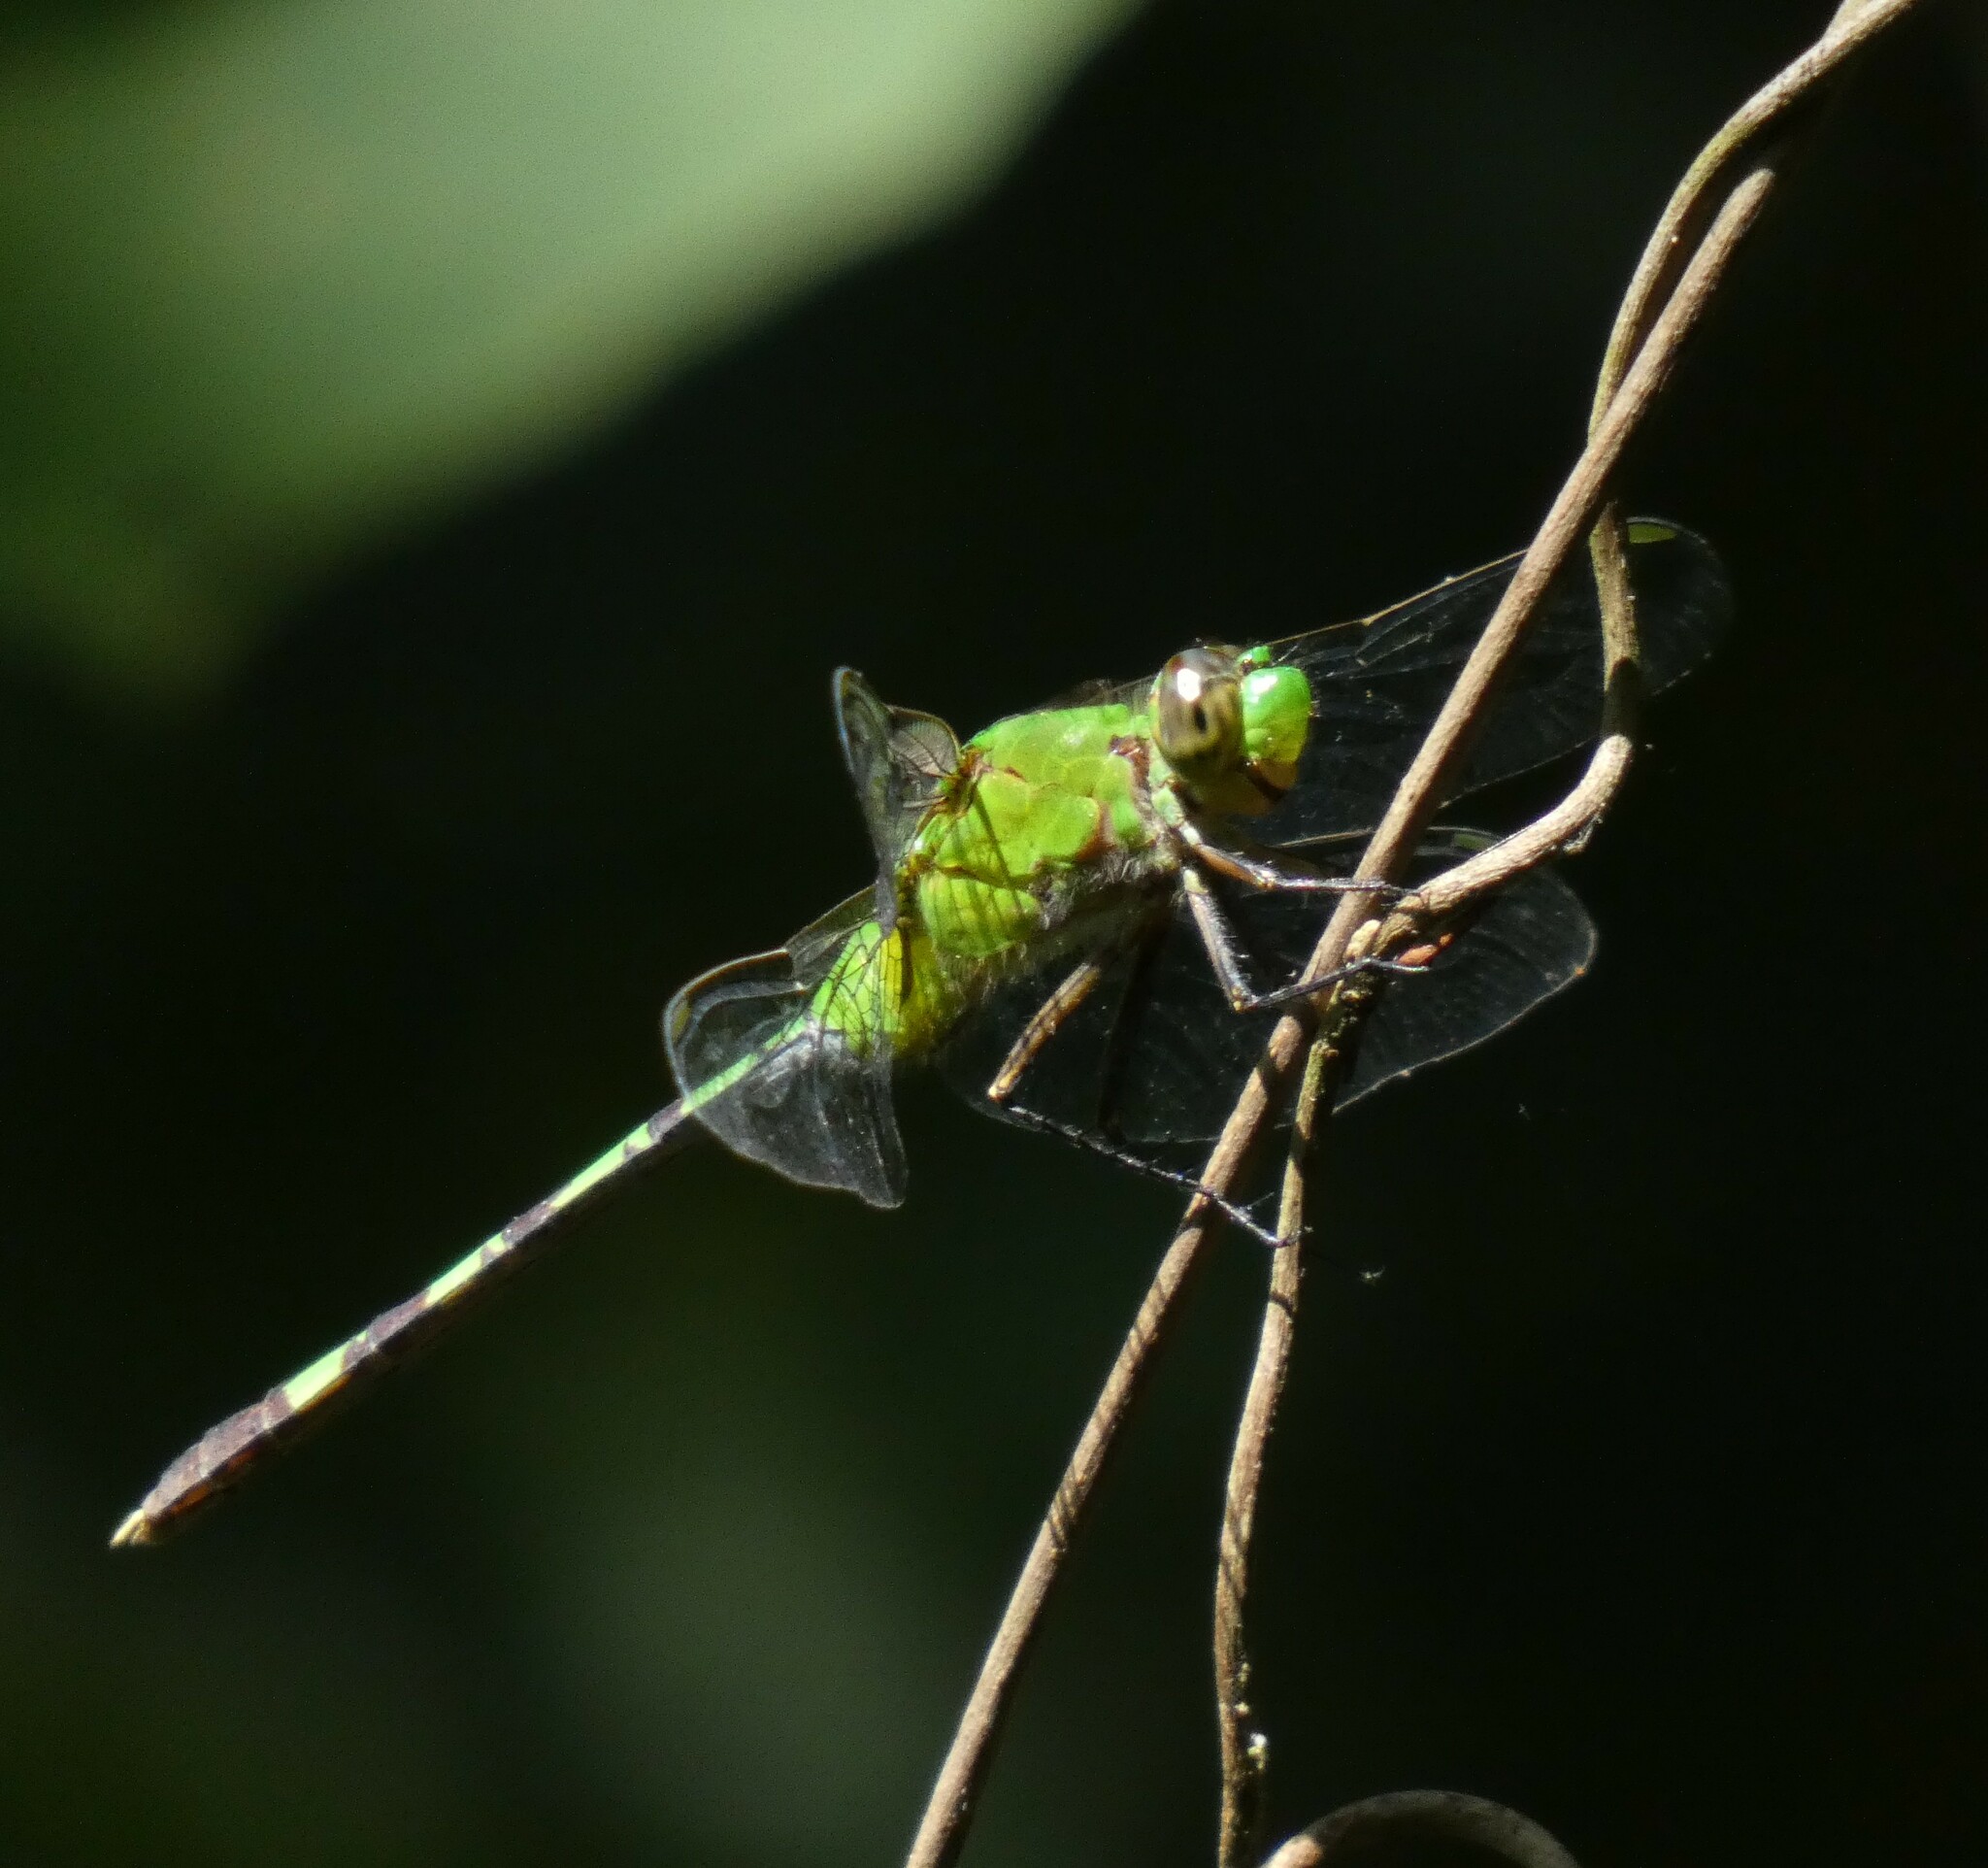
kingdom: Animalia
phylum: Arthropoda
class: Insecta
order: Odonata
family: Libellulidae
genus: Erythemis
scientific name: Erythemis vesiculosa
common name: Great pondhawk
